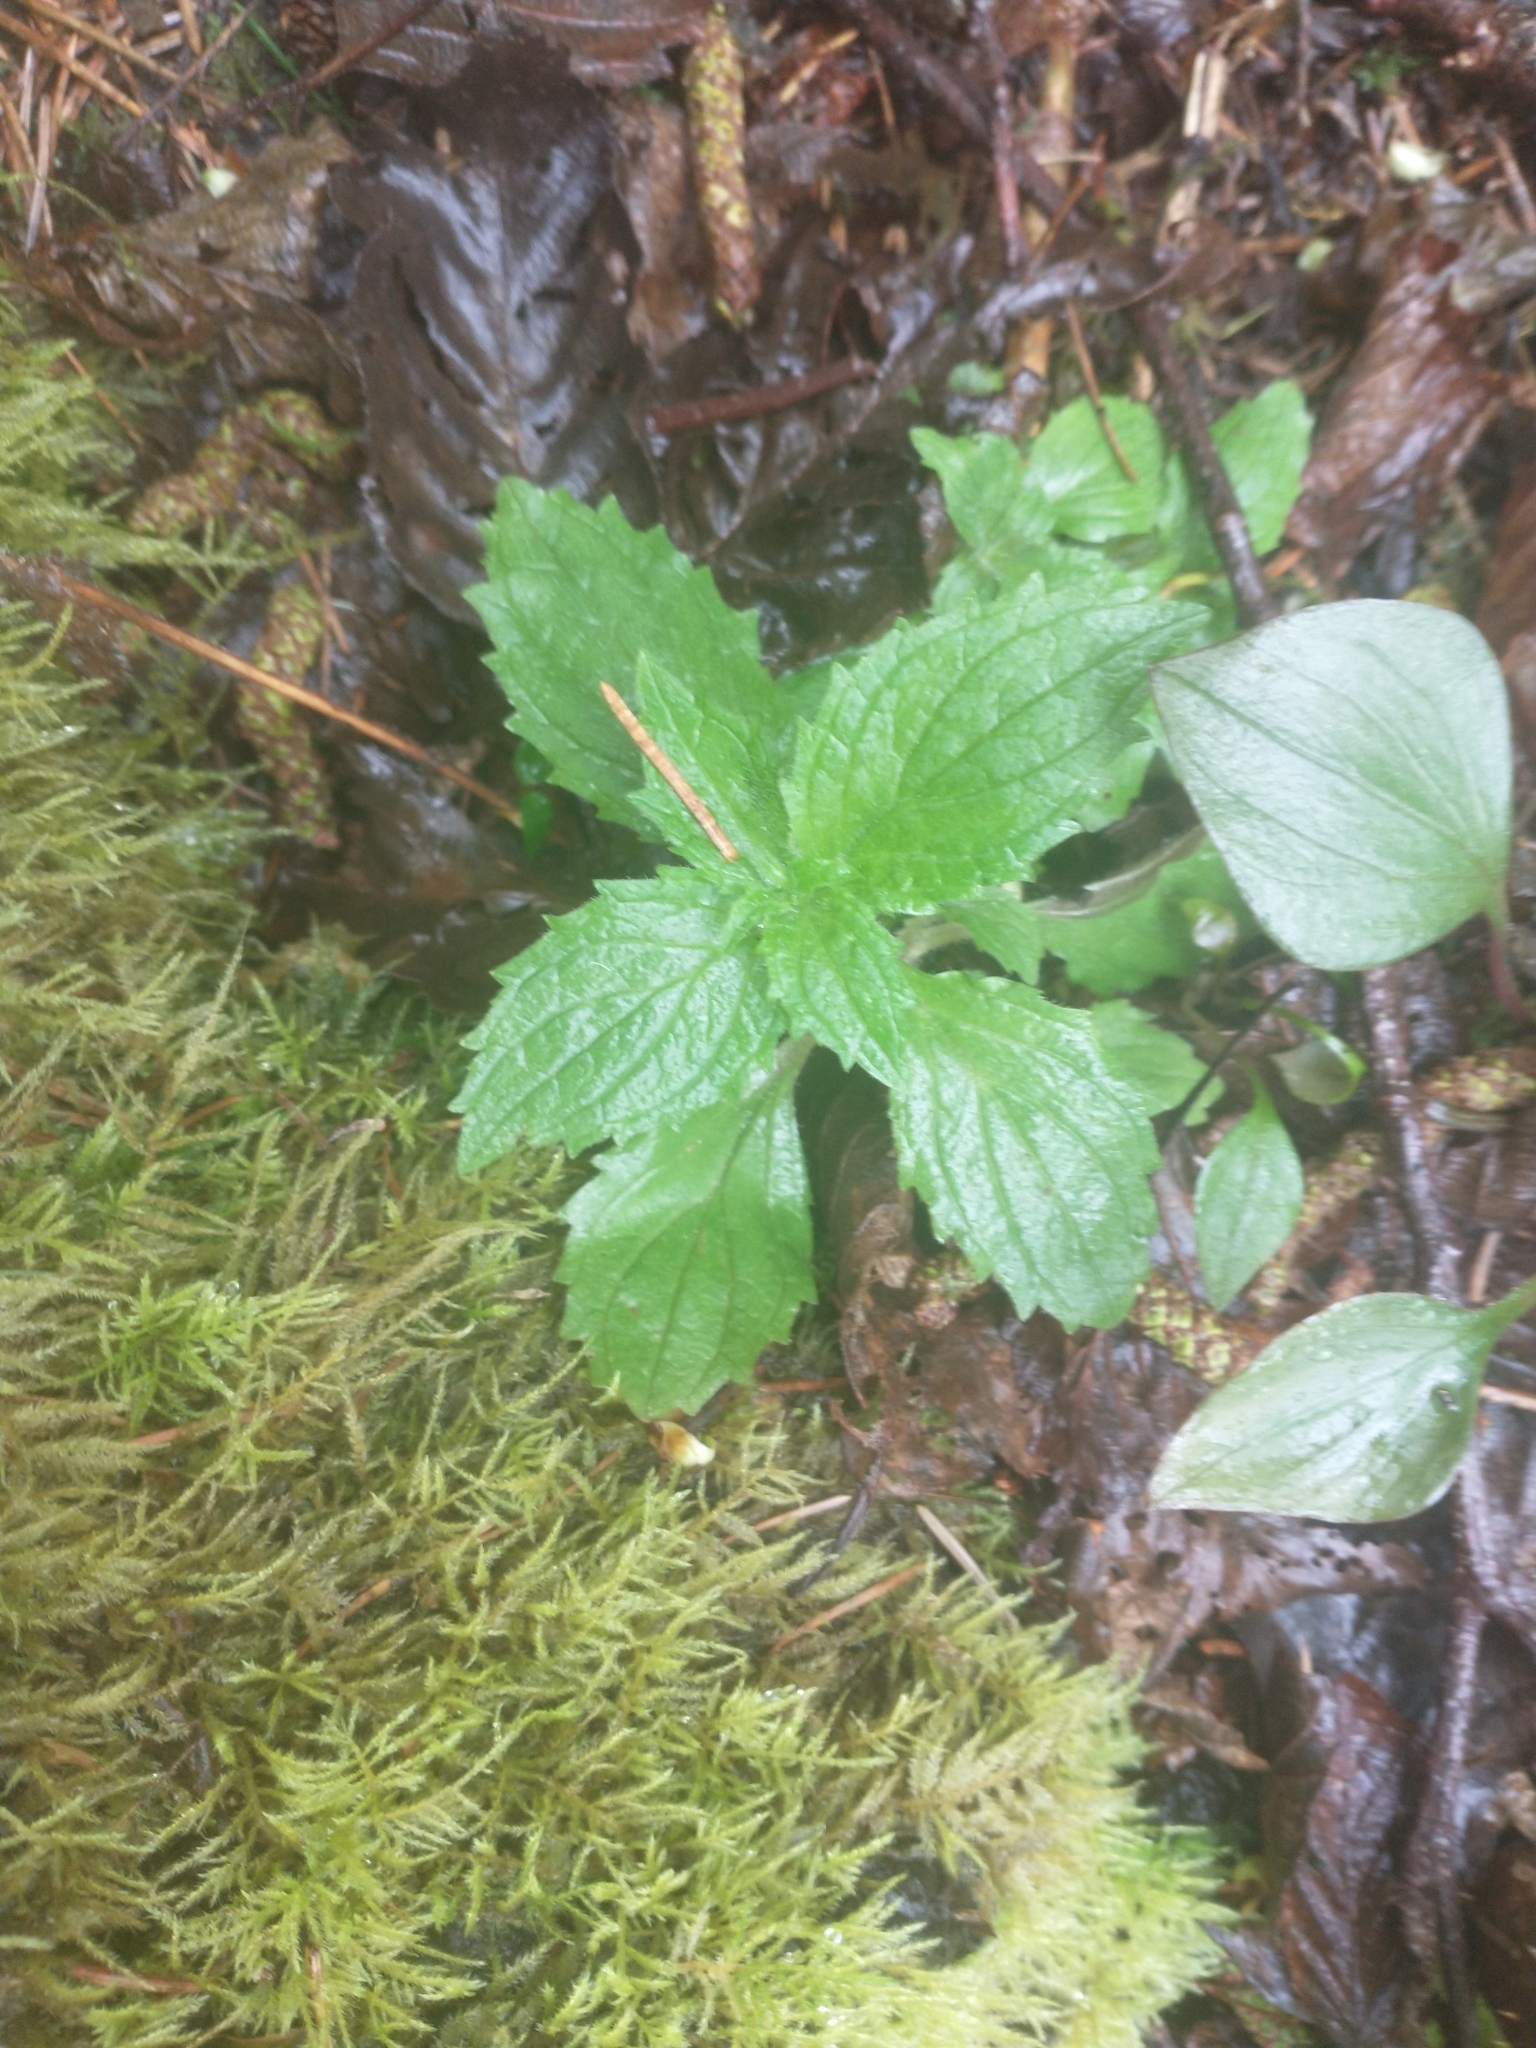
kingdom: Plantae
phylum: Tracheophyta
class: Magnoliopsida
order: Lamiales
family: Phrymaceae
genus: Erythranthe
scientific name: Erythranthe dentata
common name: Coastal monkeyflower
